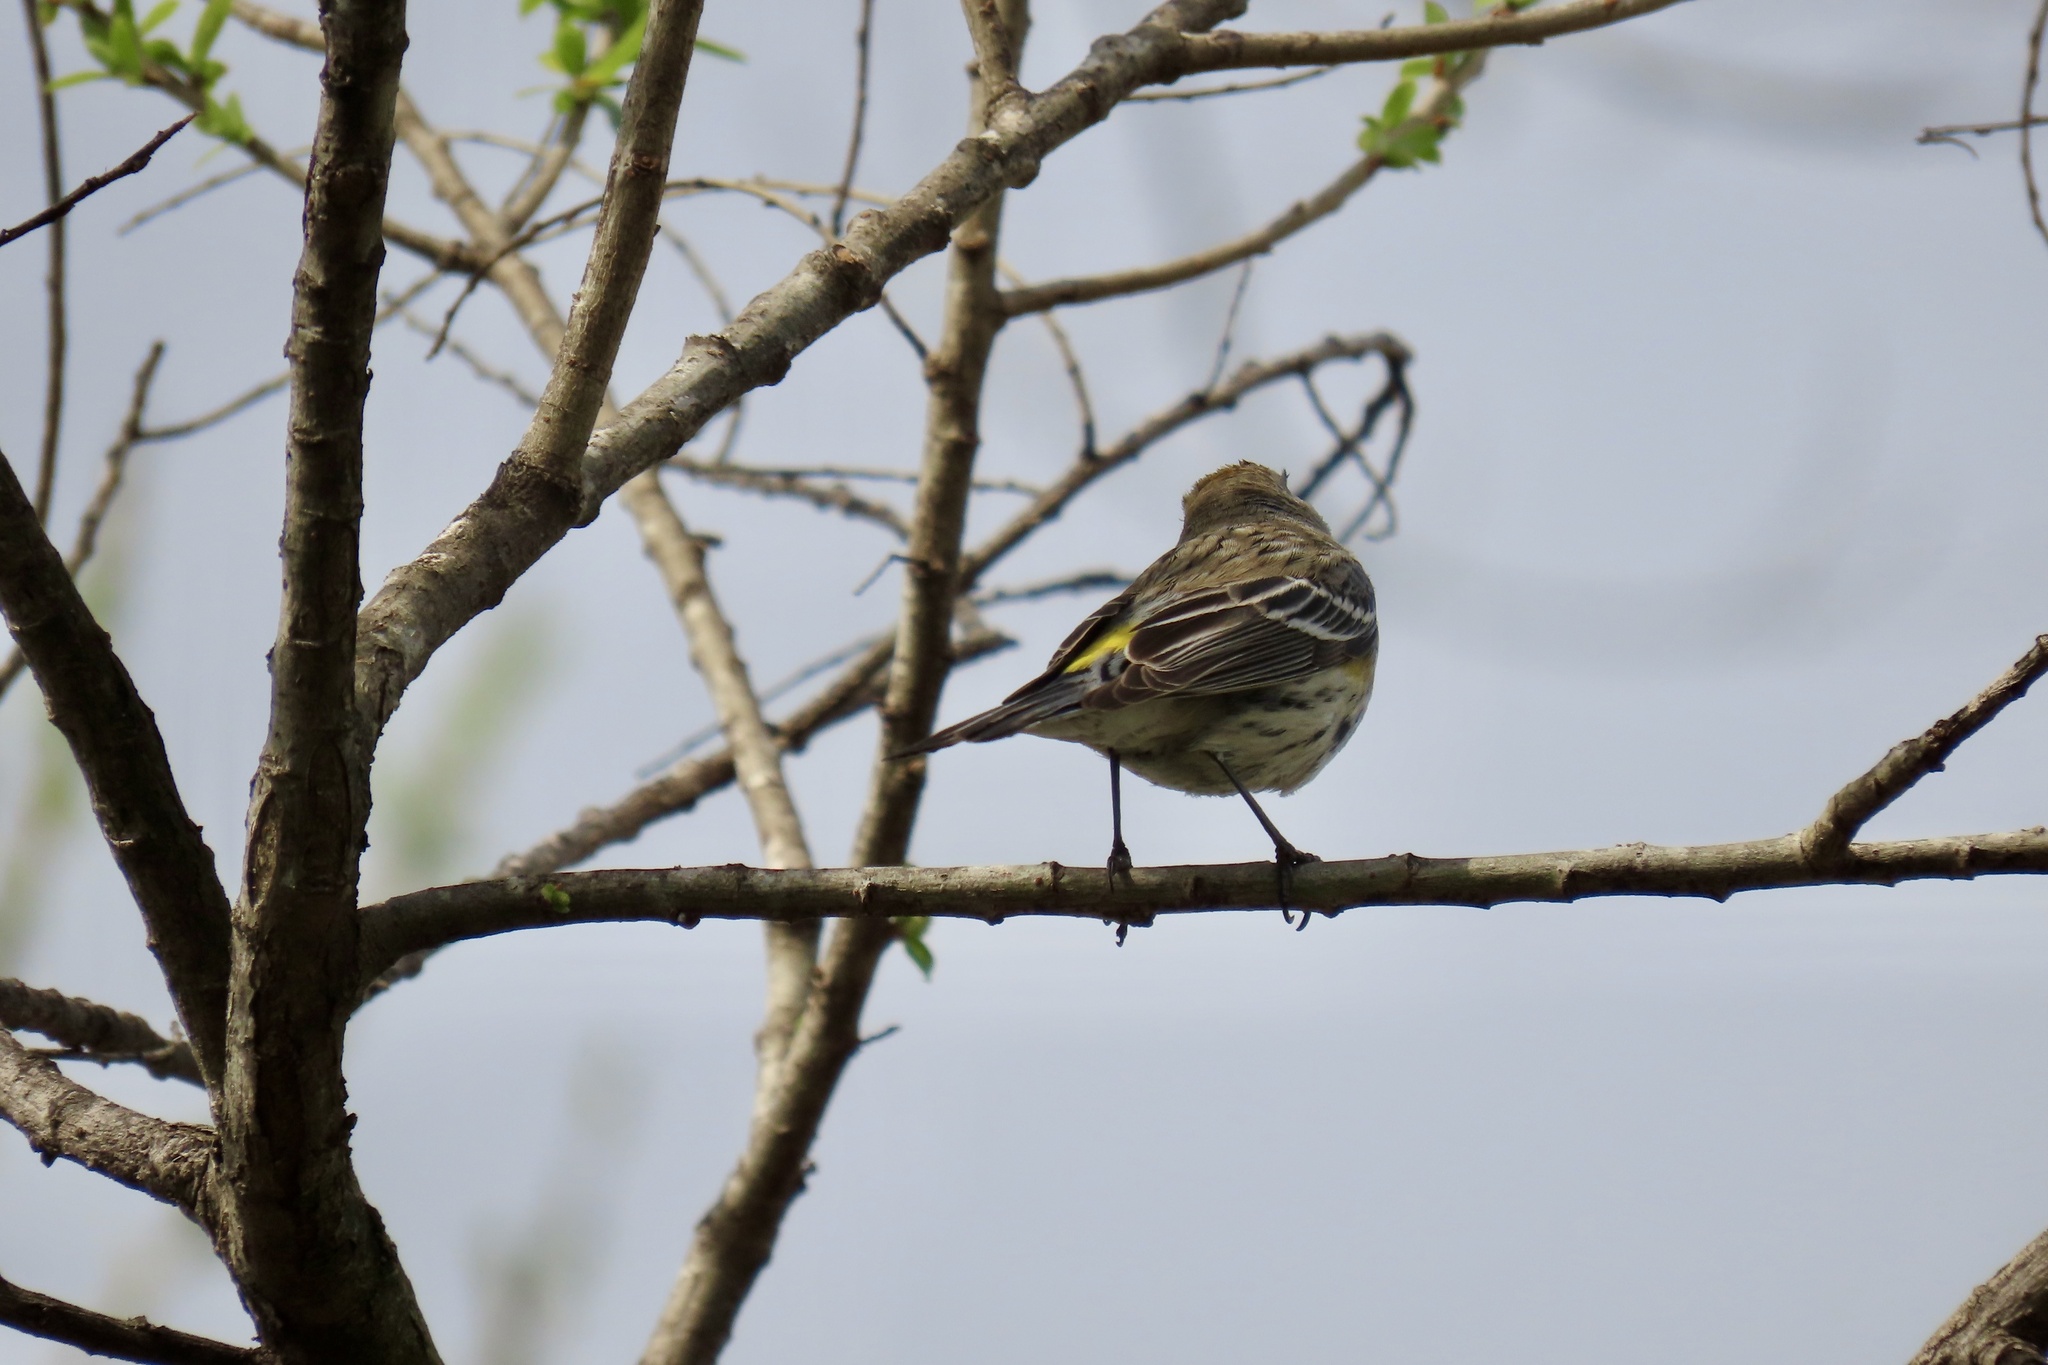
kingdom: Animalia
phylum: Chordata
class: Aves
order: Passeriformes
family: Parulidae
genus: Setophaga
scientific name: Setophaga coronata
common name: Myrtle warbler
